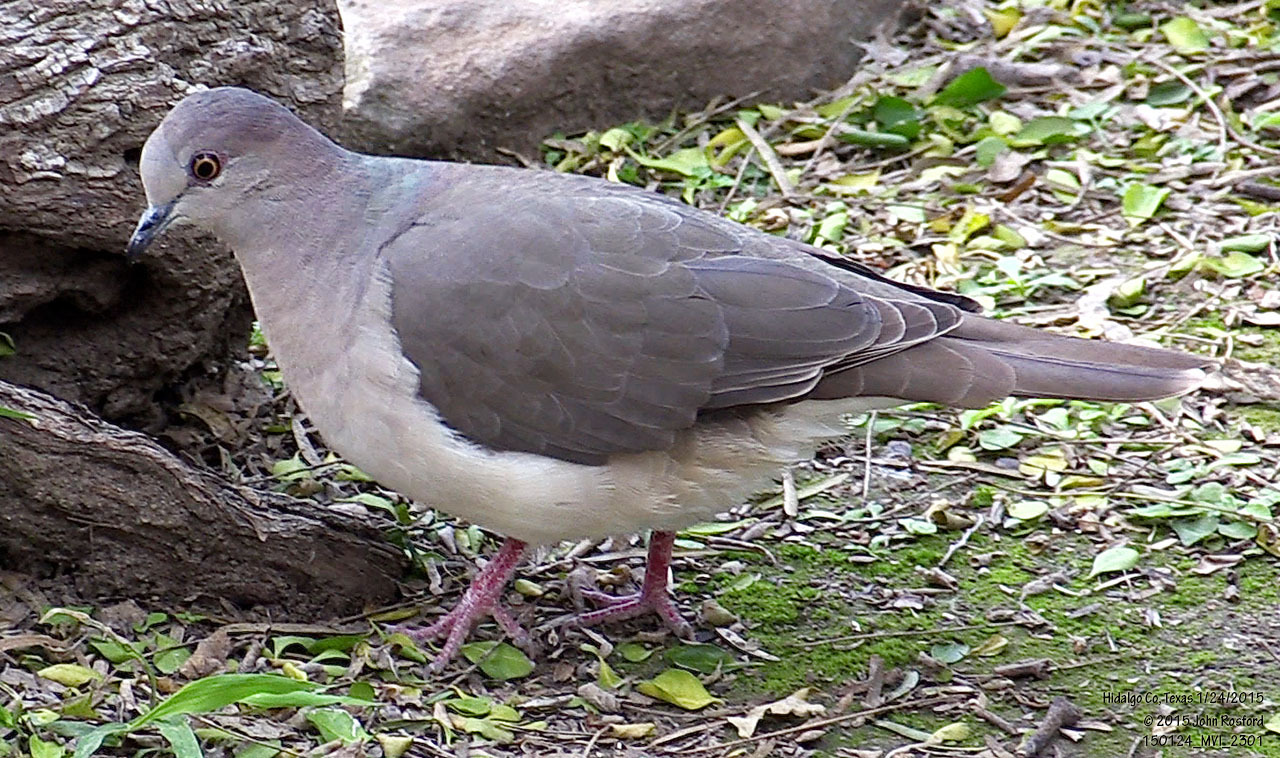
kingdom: Animalia
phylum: Chordata
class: Aves
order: Columbiformes
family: Columbidae
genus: Leptotila
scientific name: Leptotila verreauxi
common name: White-tipped dove
